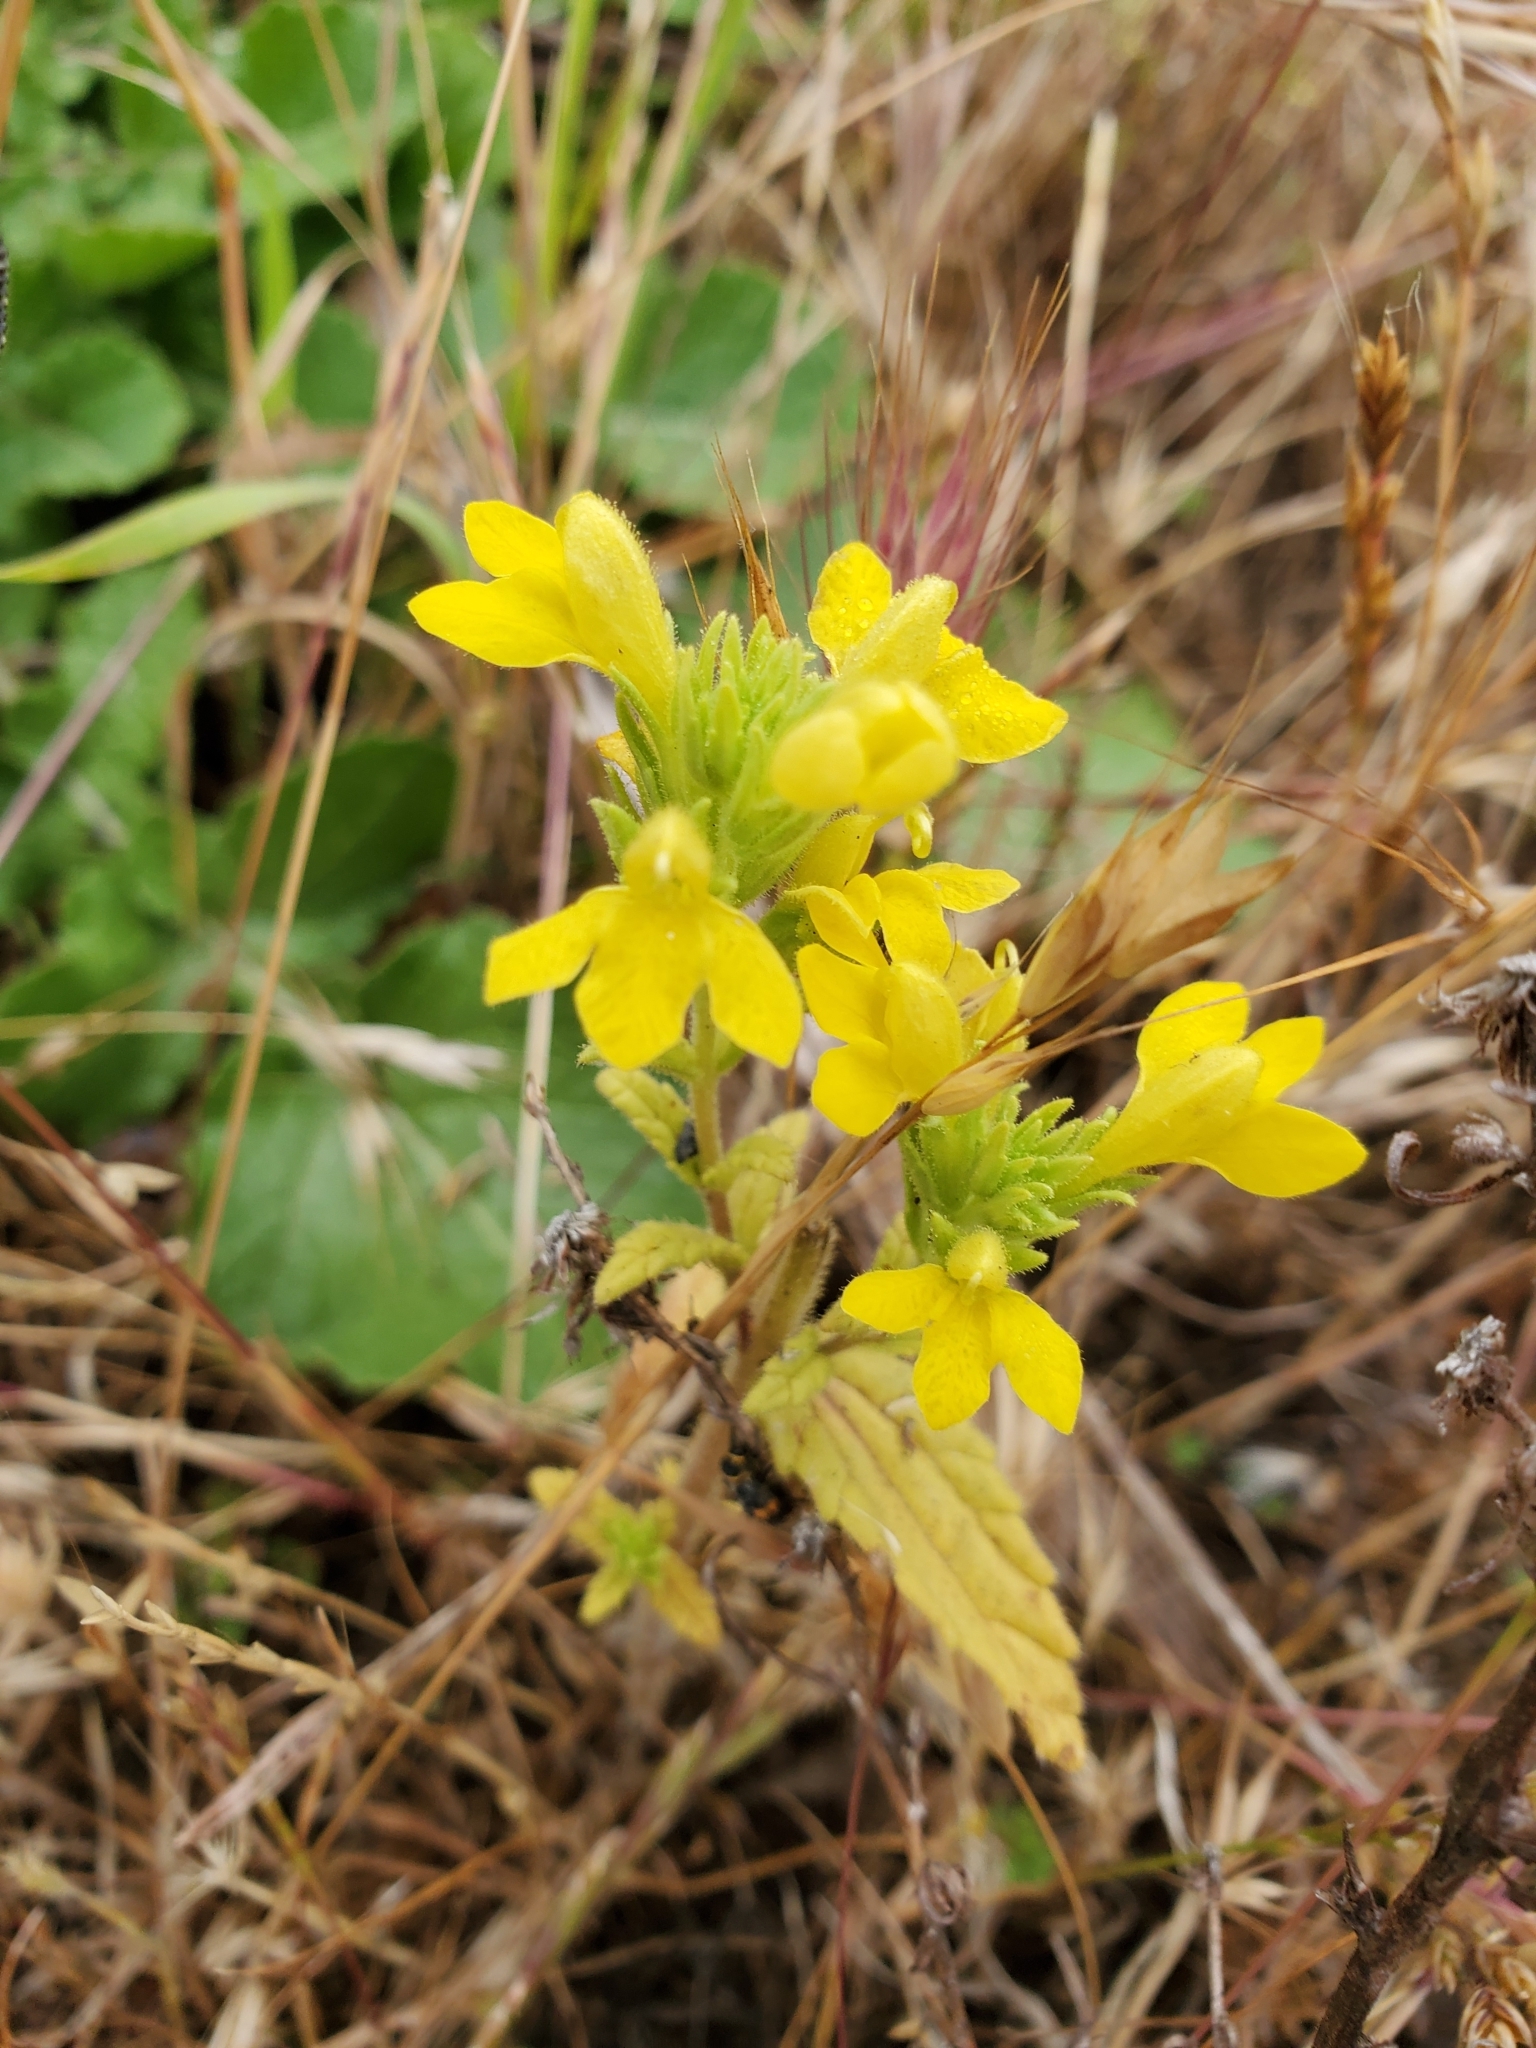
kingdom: Plantae
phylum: Tracheophyta
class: Magnoliopsida
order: Lamiales
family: Orobanchaceae
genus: Bellardia
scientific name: Bellardia viscosa
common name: Sticky parentucellia
